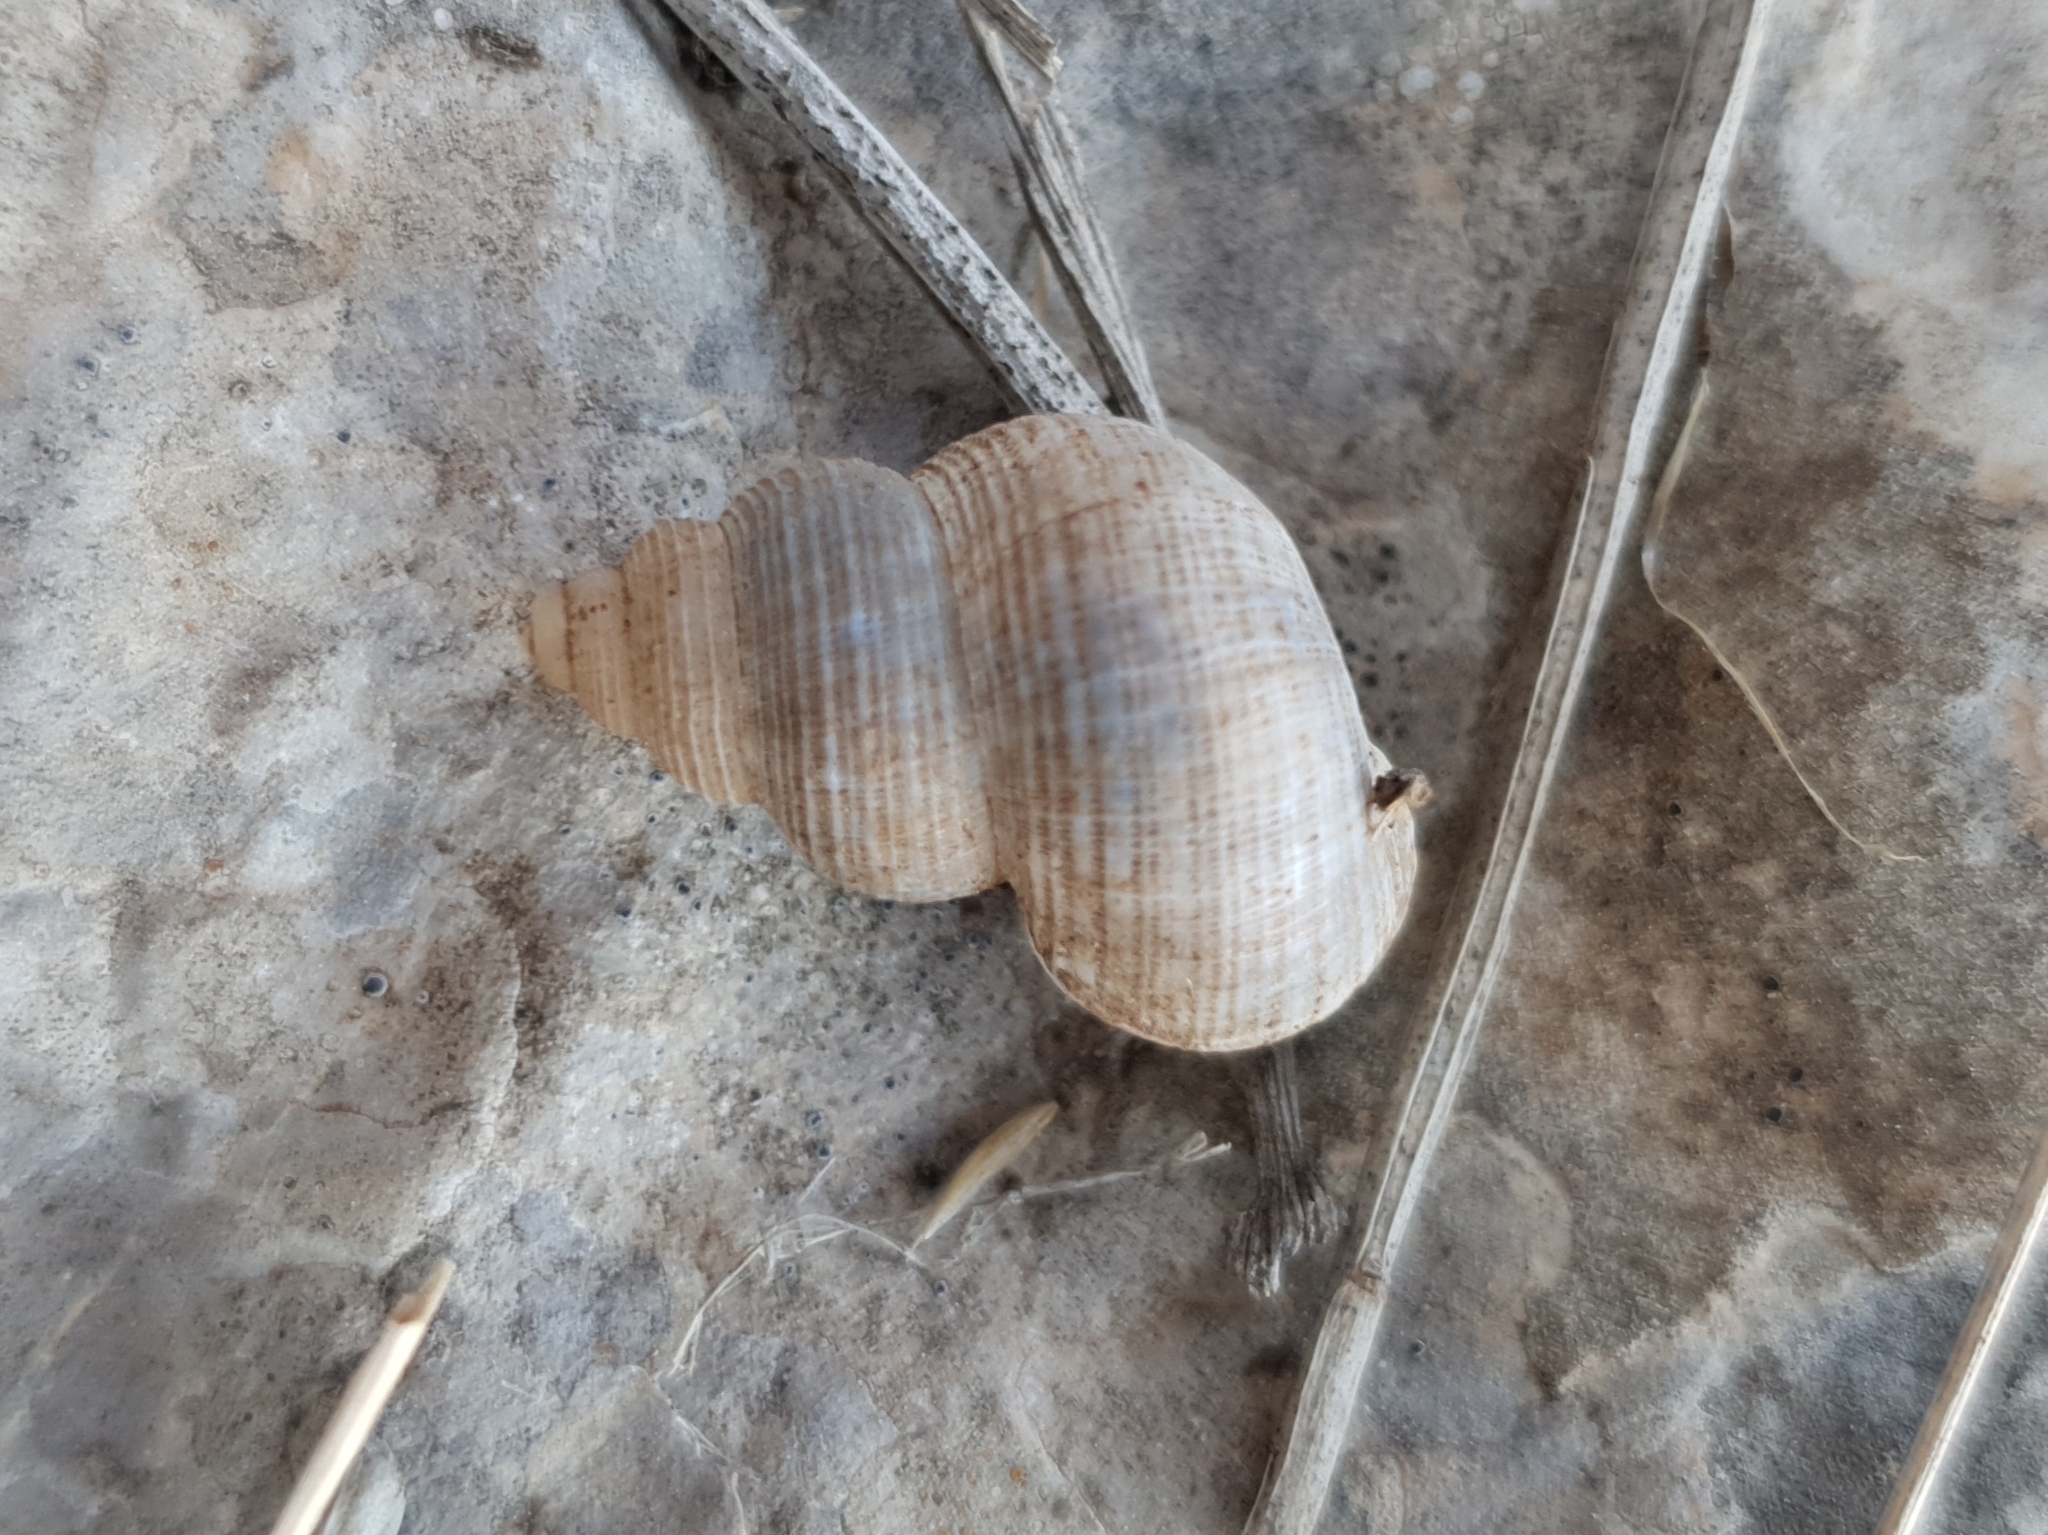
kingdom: Animalia
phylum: Mollusca
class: Gastropoda
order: Littorinimorpha
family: Pomatiidae
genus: Tudorella
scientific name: Tudorella sulcata
